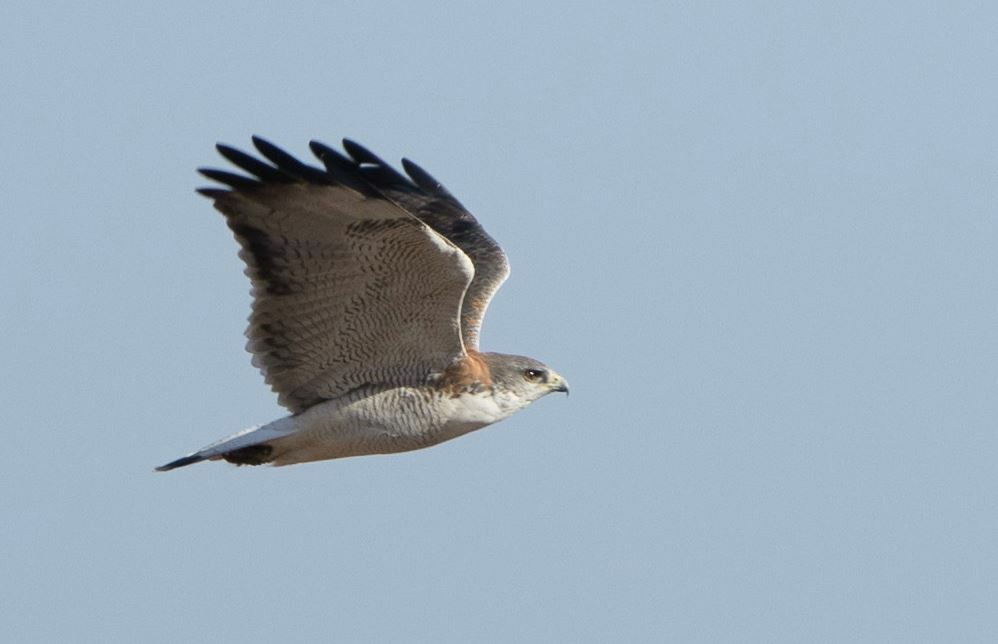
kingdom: Animalia
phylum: Chordata
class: Aves
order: Accipitriformes
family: Accipitridae
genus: Buteo
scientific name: Buteo polyosoma
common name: Variable hawk
